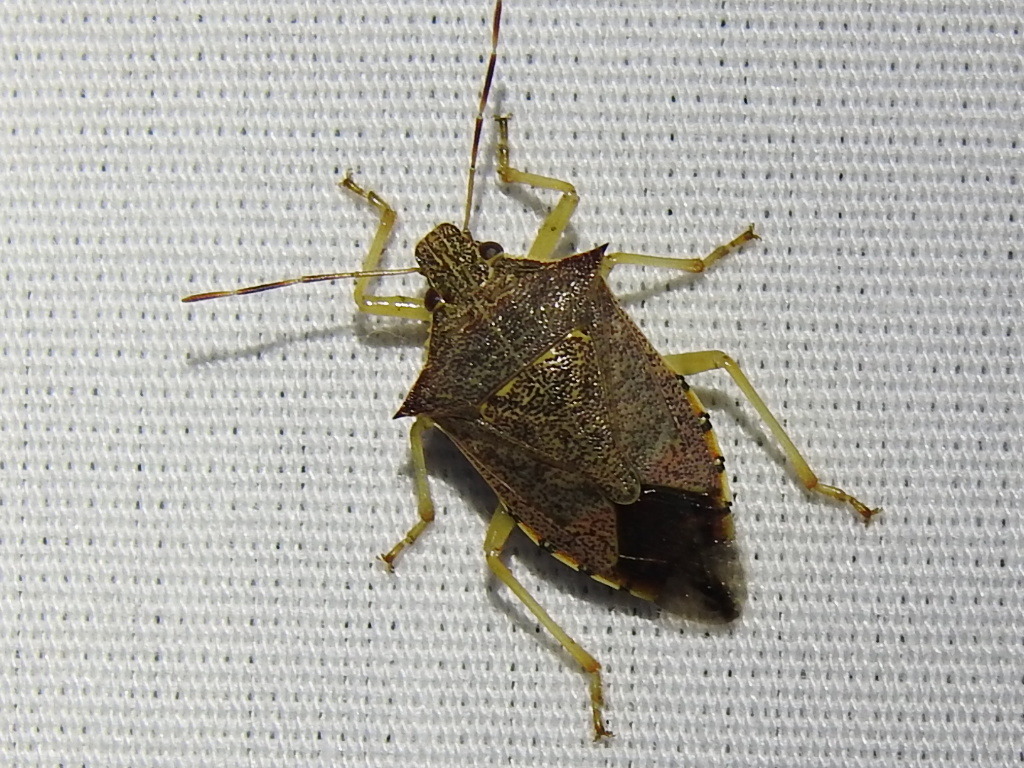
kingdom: Animalia
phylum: Arthropoda
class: Insecta
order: Hemiptera
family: Pentatomidae
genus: Podisus
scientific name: Podisus maculiventris
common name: Spined soldier bug
